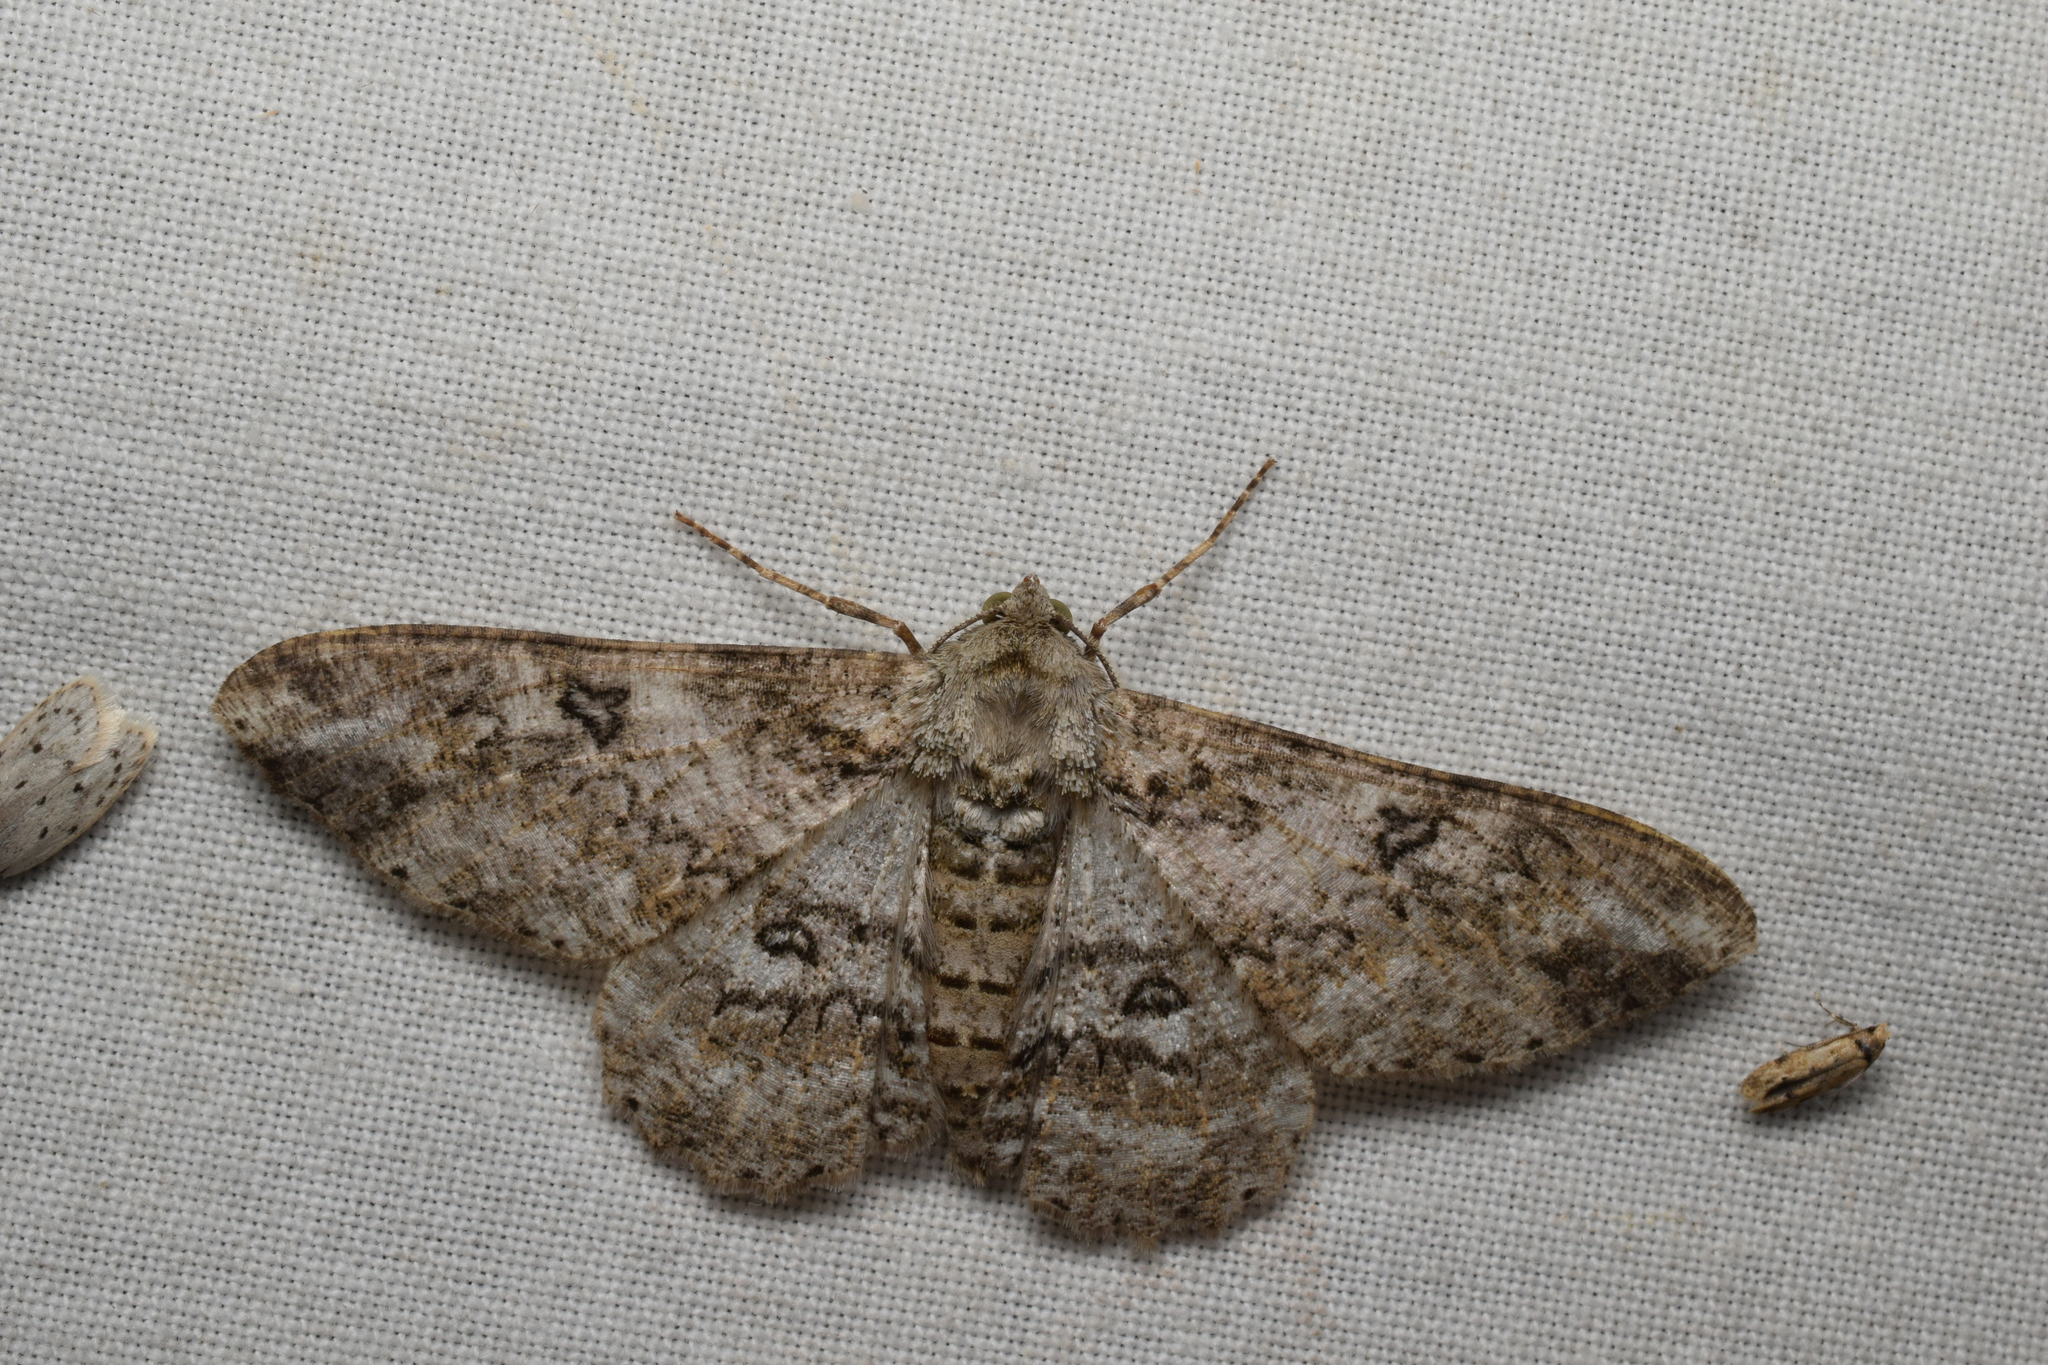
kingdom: Animalia
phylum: Arthropoda
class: Insecta
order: Lepidoptera
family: Geometridae
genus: Ascotis
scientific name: Ascotis selenaria
